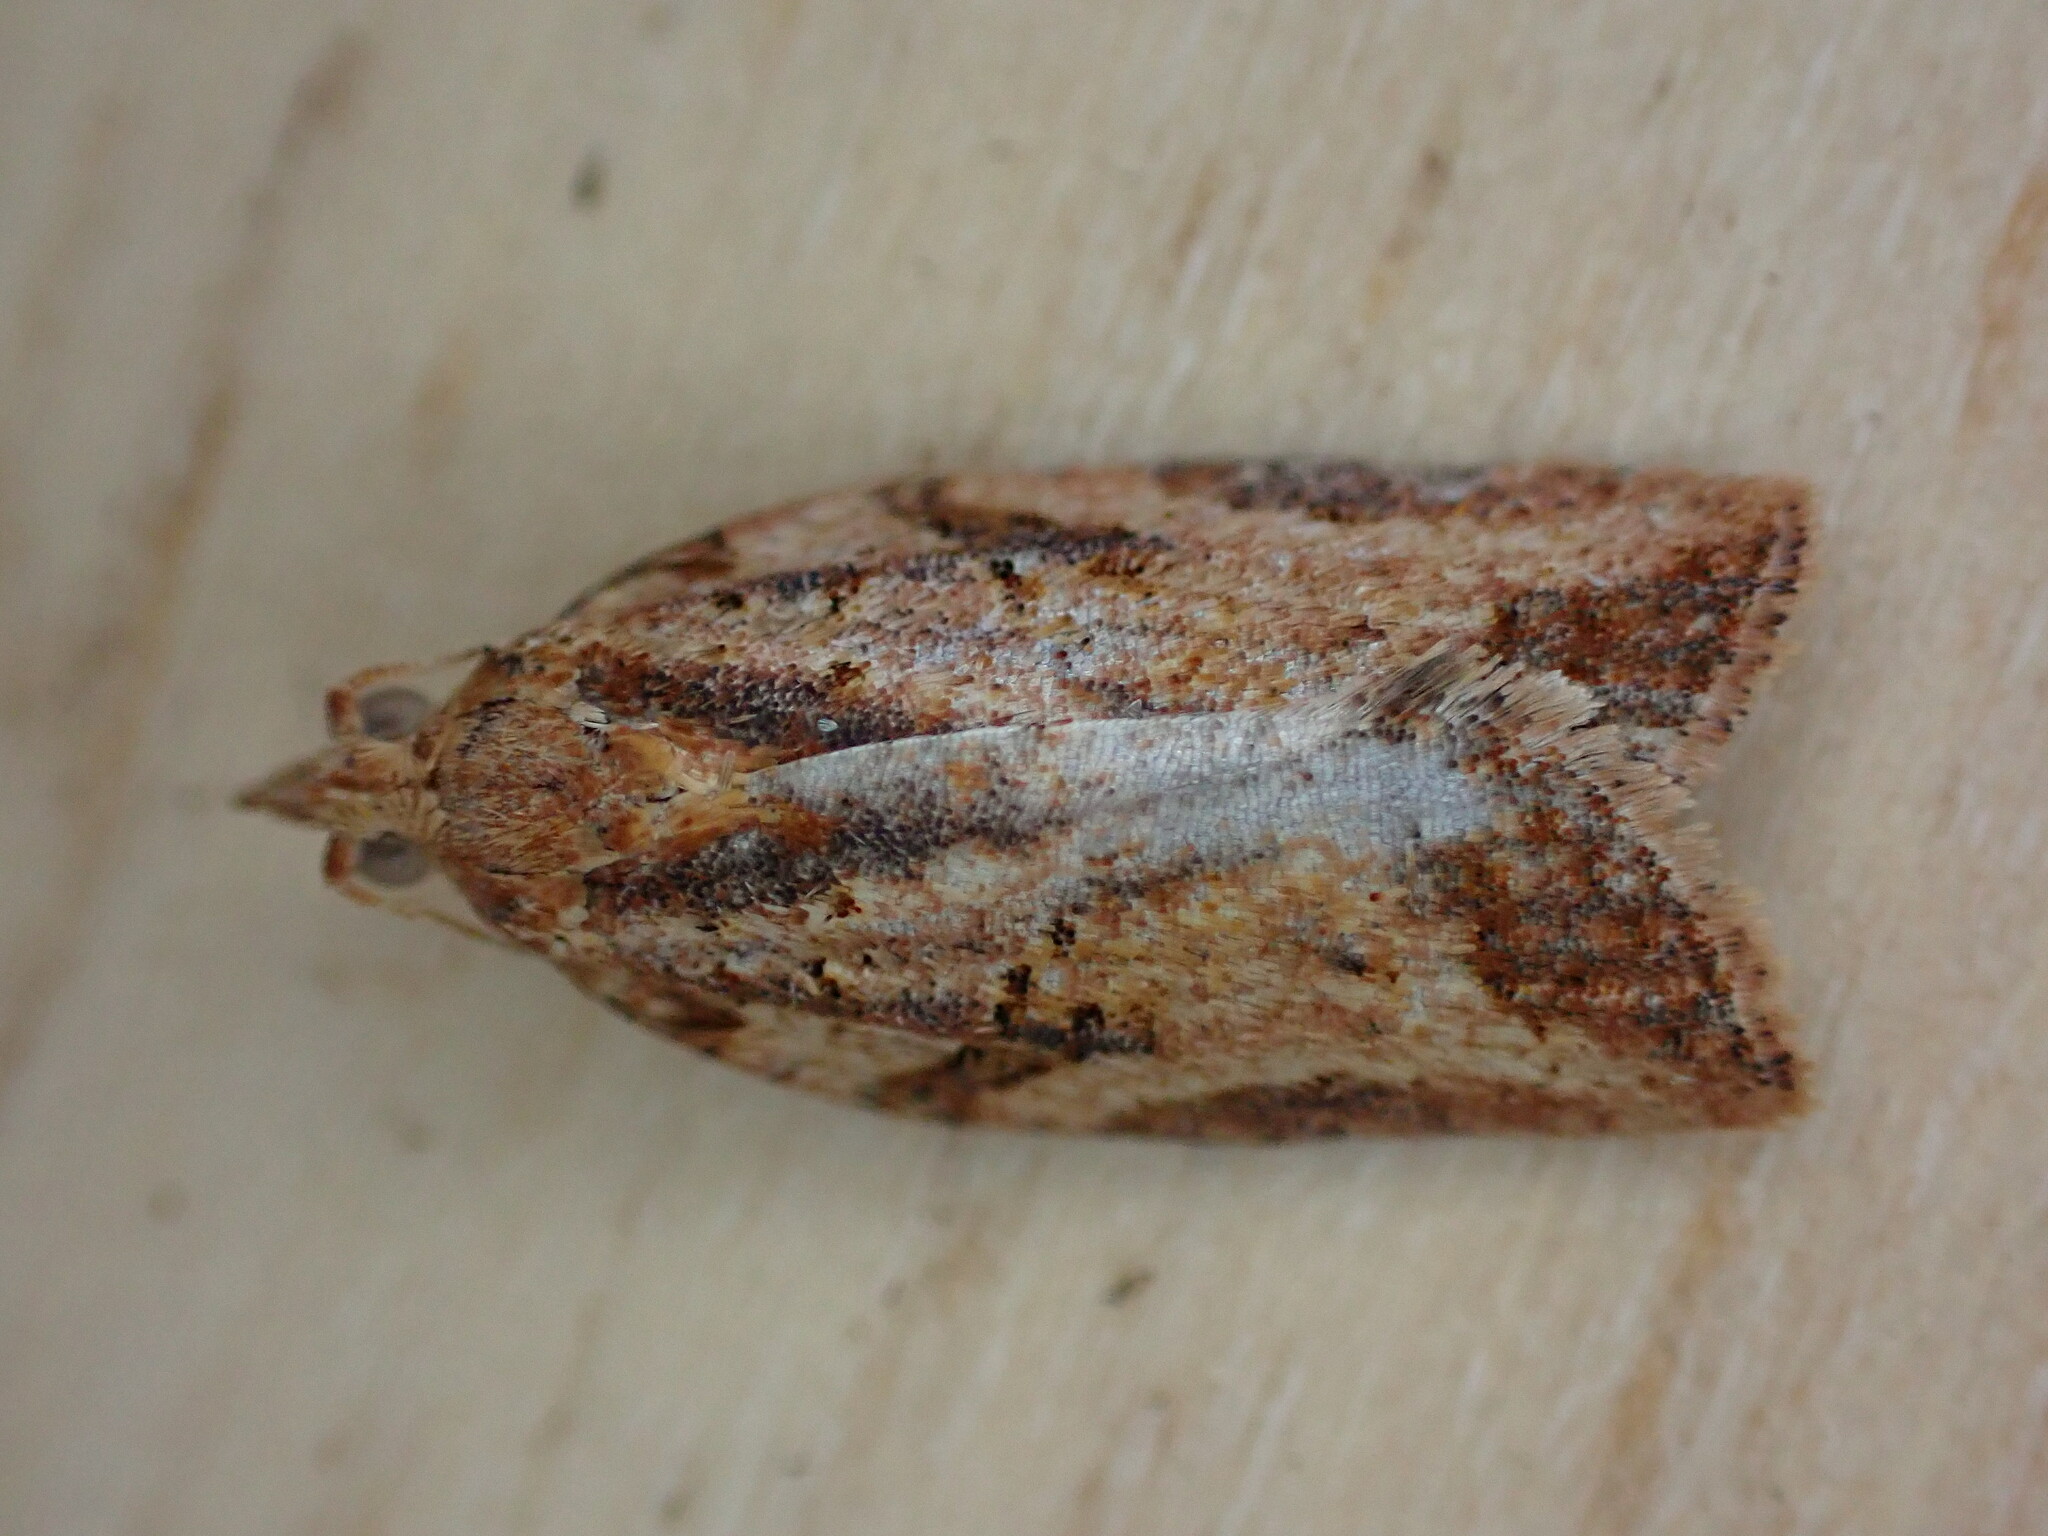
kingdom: Animalia
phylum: Arthropoda
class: Insecta
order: Lepidoptera
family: Tortricidae
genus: Epiphyas
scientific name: Epiphyas postvittana
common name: Light brown apple moth
